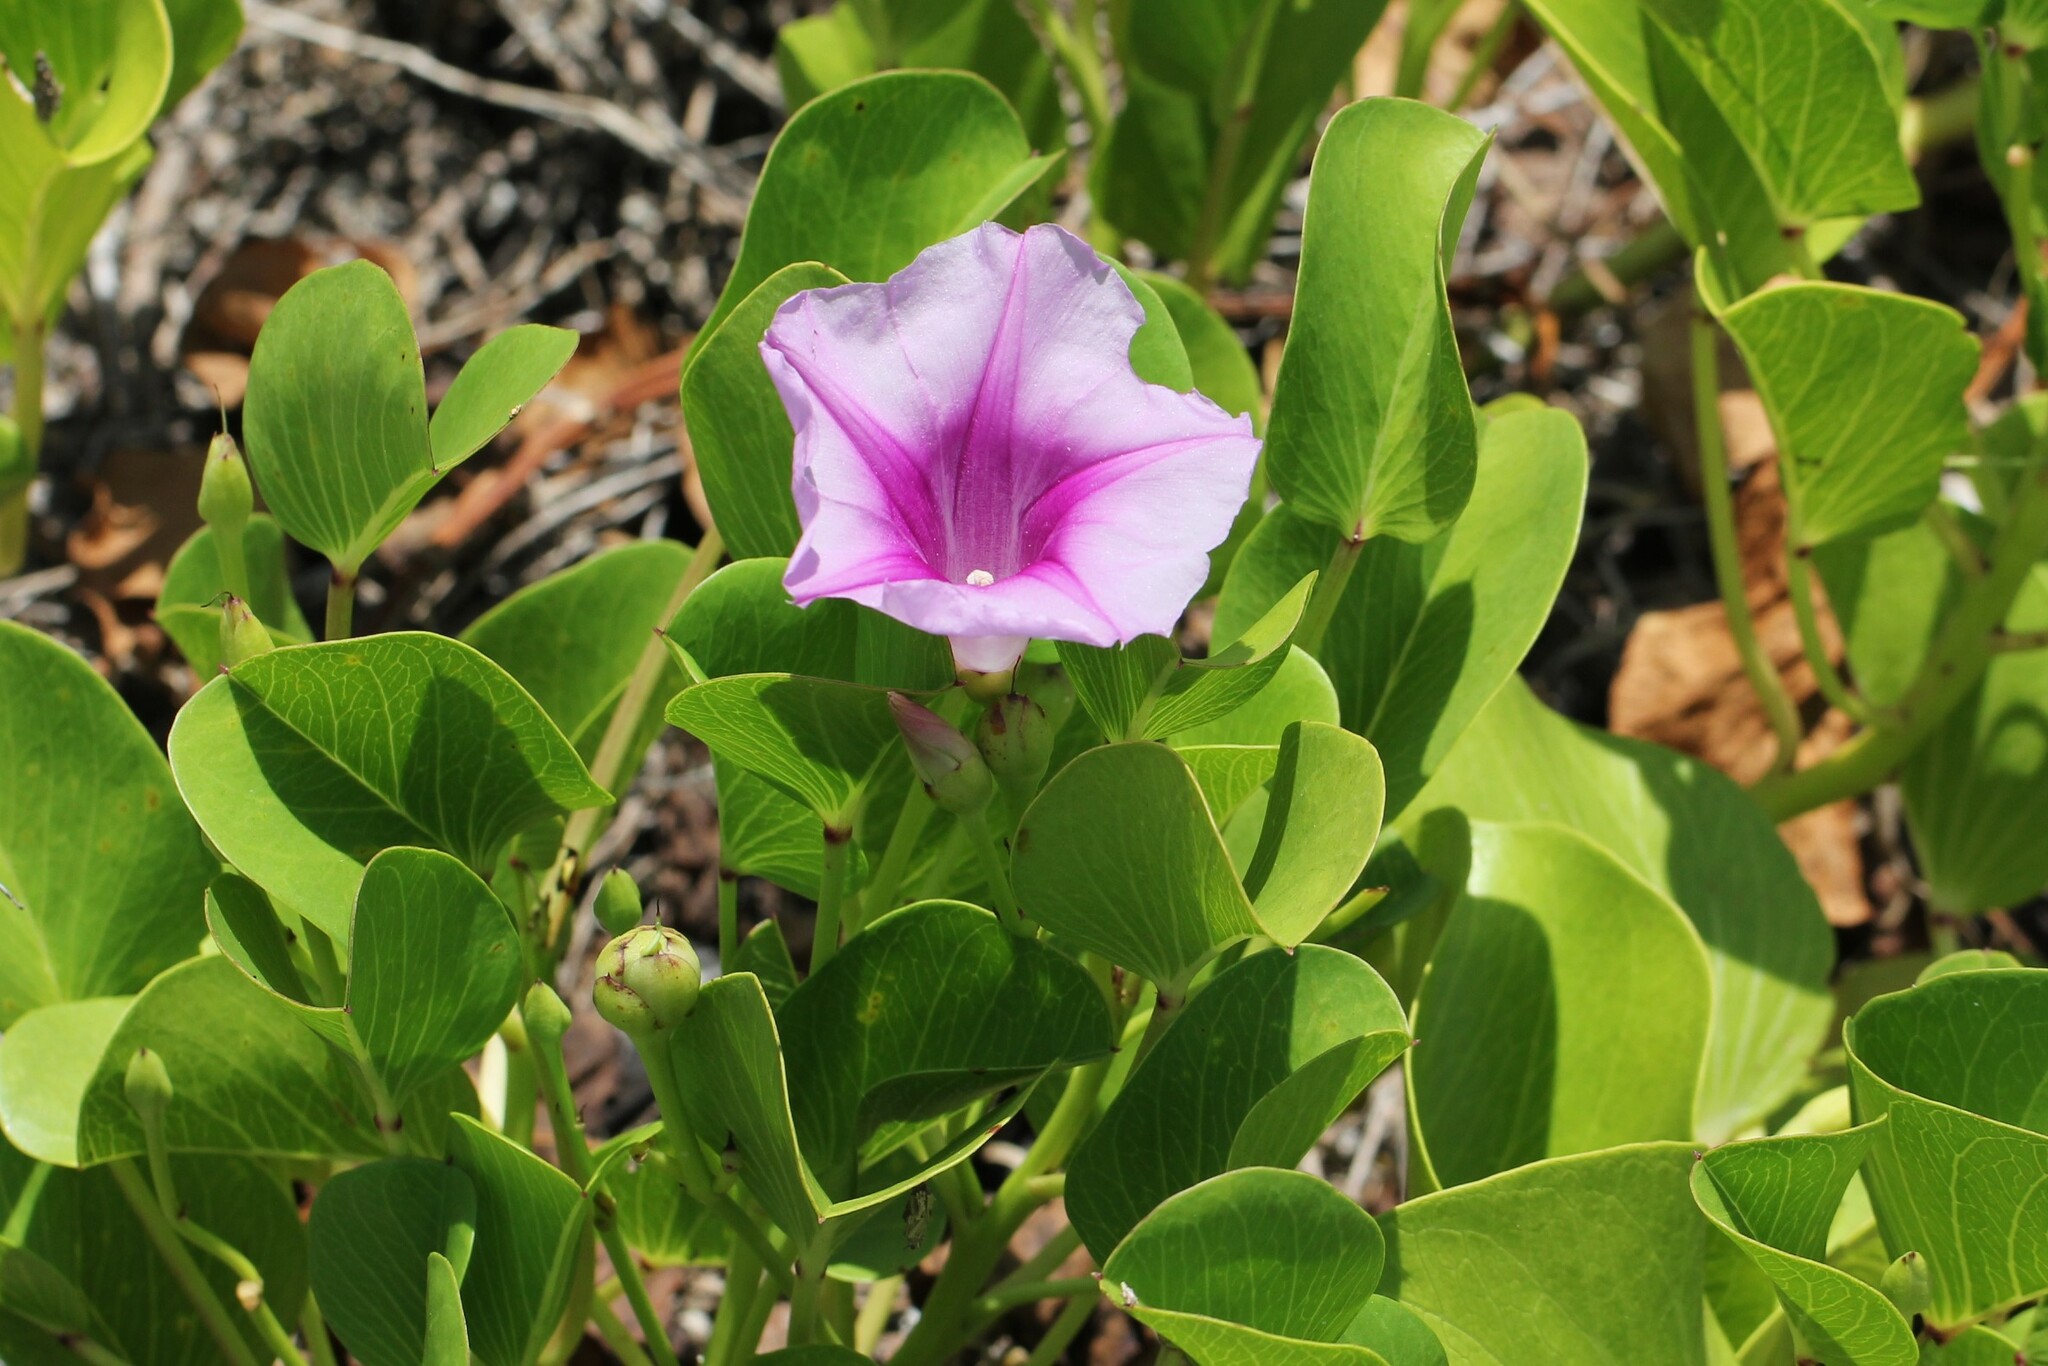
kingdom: Plantae
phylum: Tracheophyta
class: Magnoliopsida
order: Solanales
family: Convolvulaceae
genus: Ipomoea
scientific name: Ipomoea pes-caprae
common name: Beach morning glory
